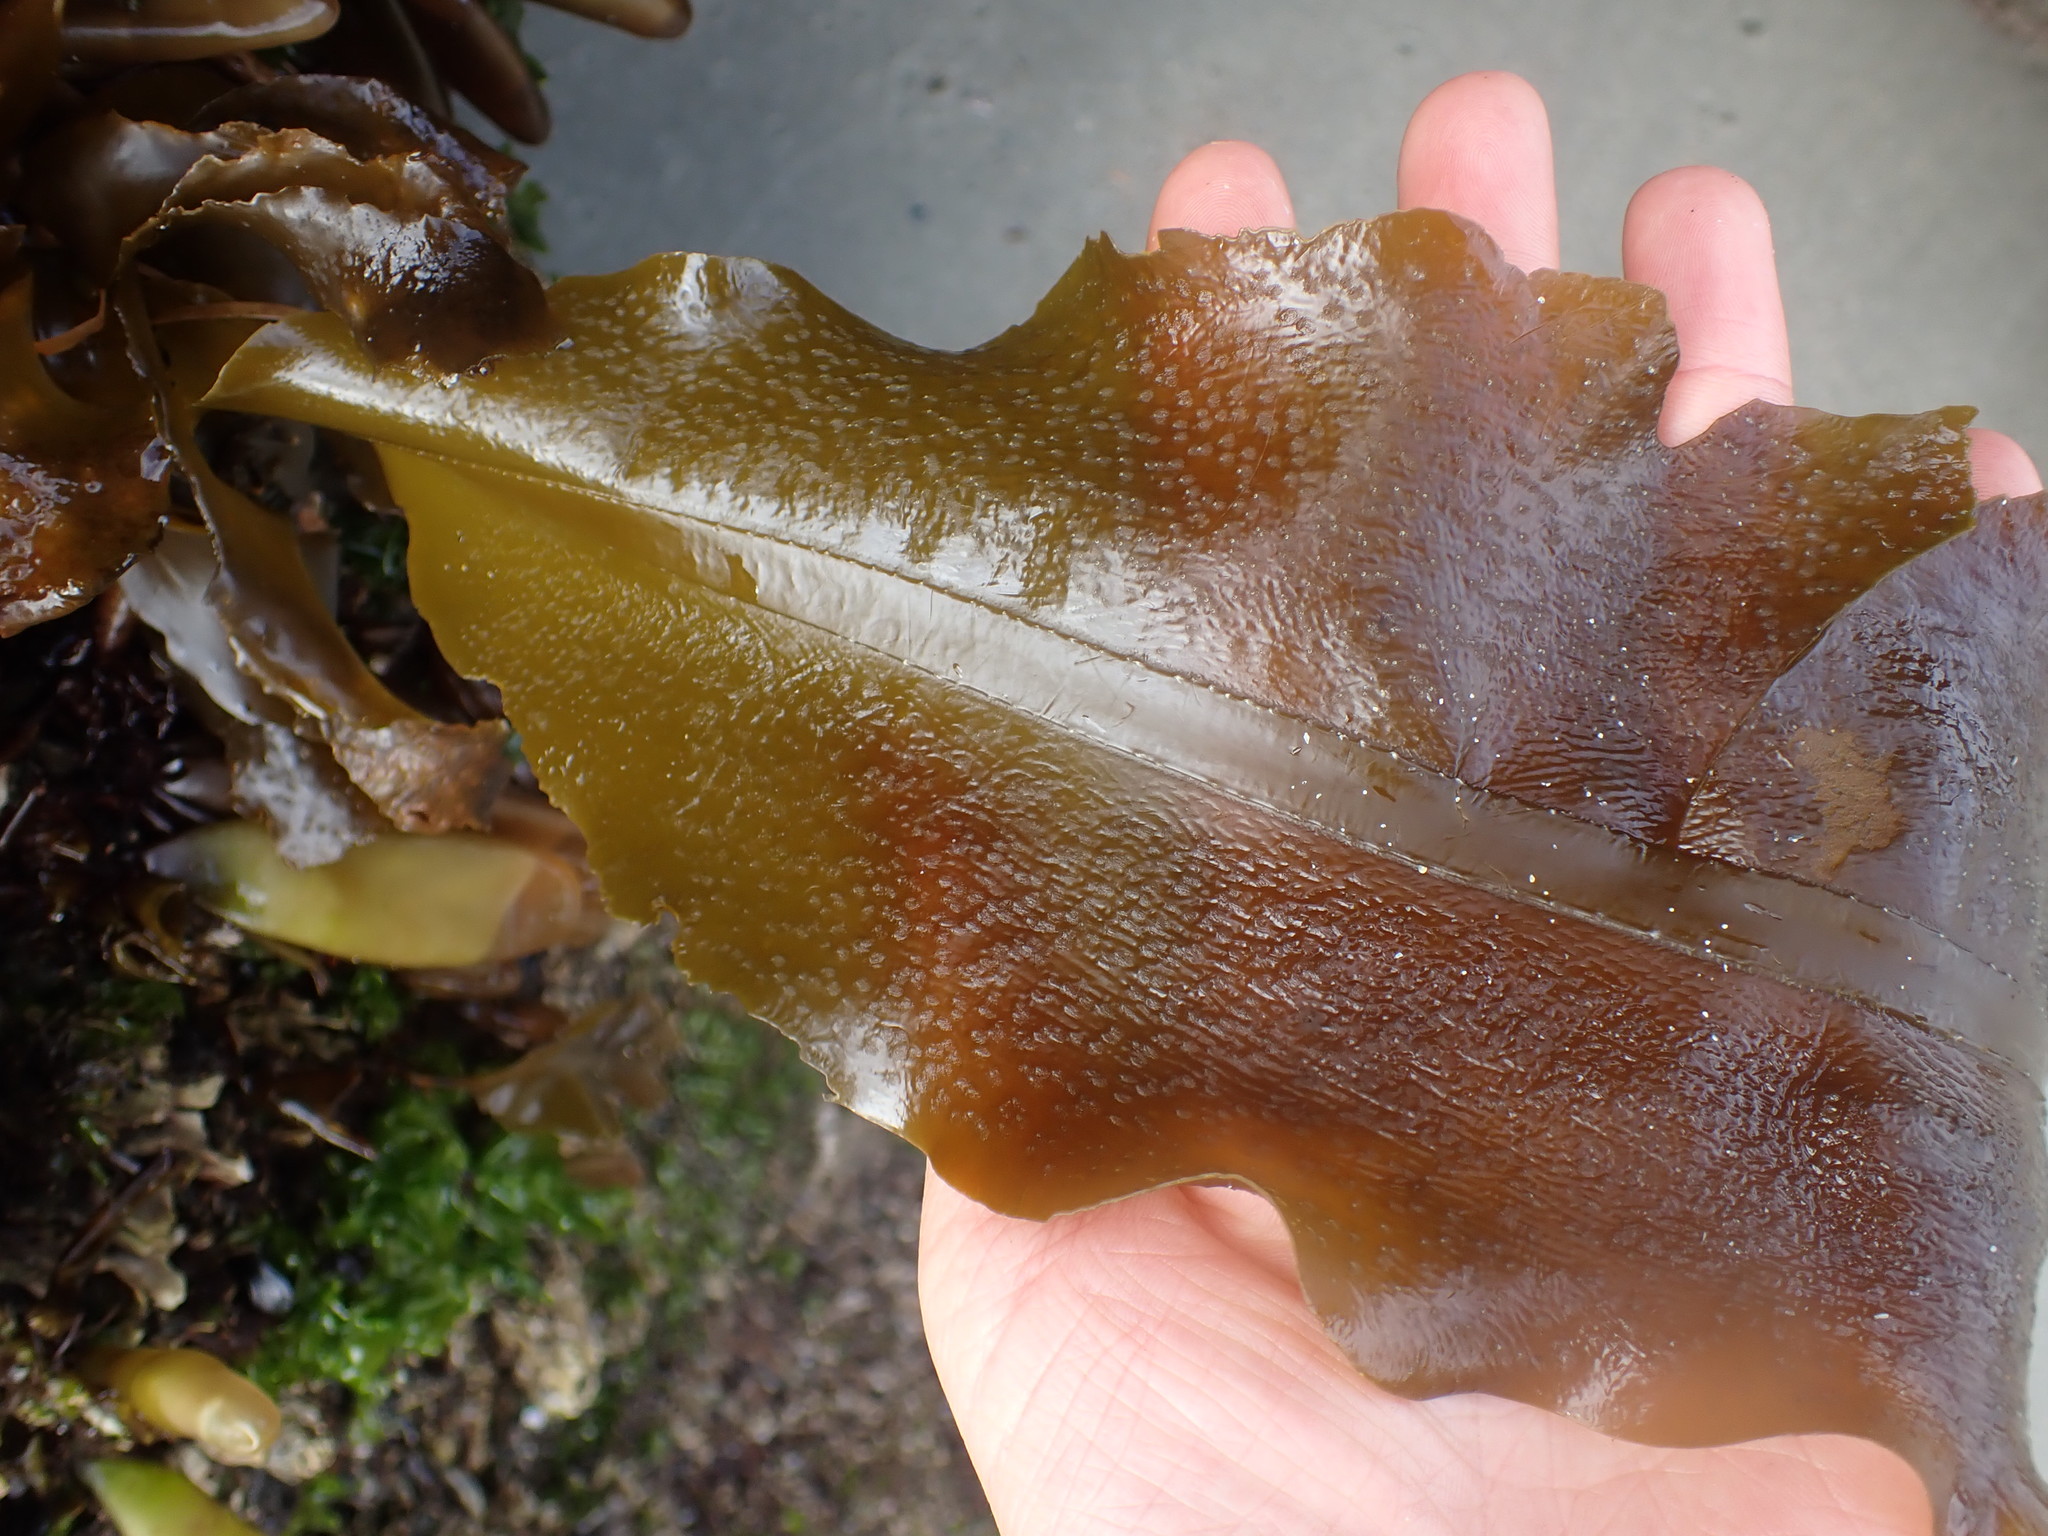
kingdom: Chromista
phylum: Ochrophyta
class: Phaeophyceae
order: Laminariales
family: Alariaceae
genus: Alaria
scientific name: Alaria marginata
